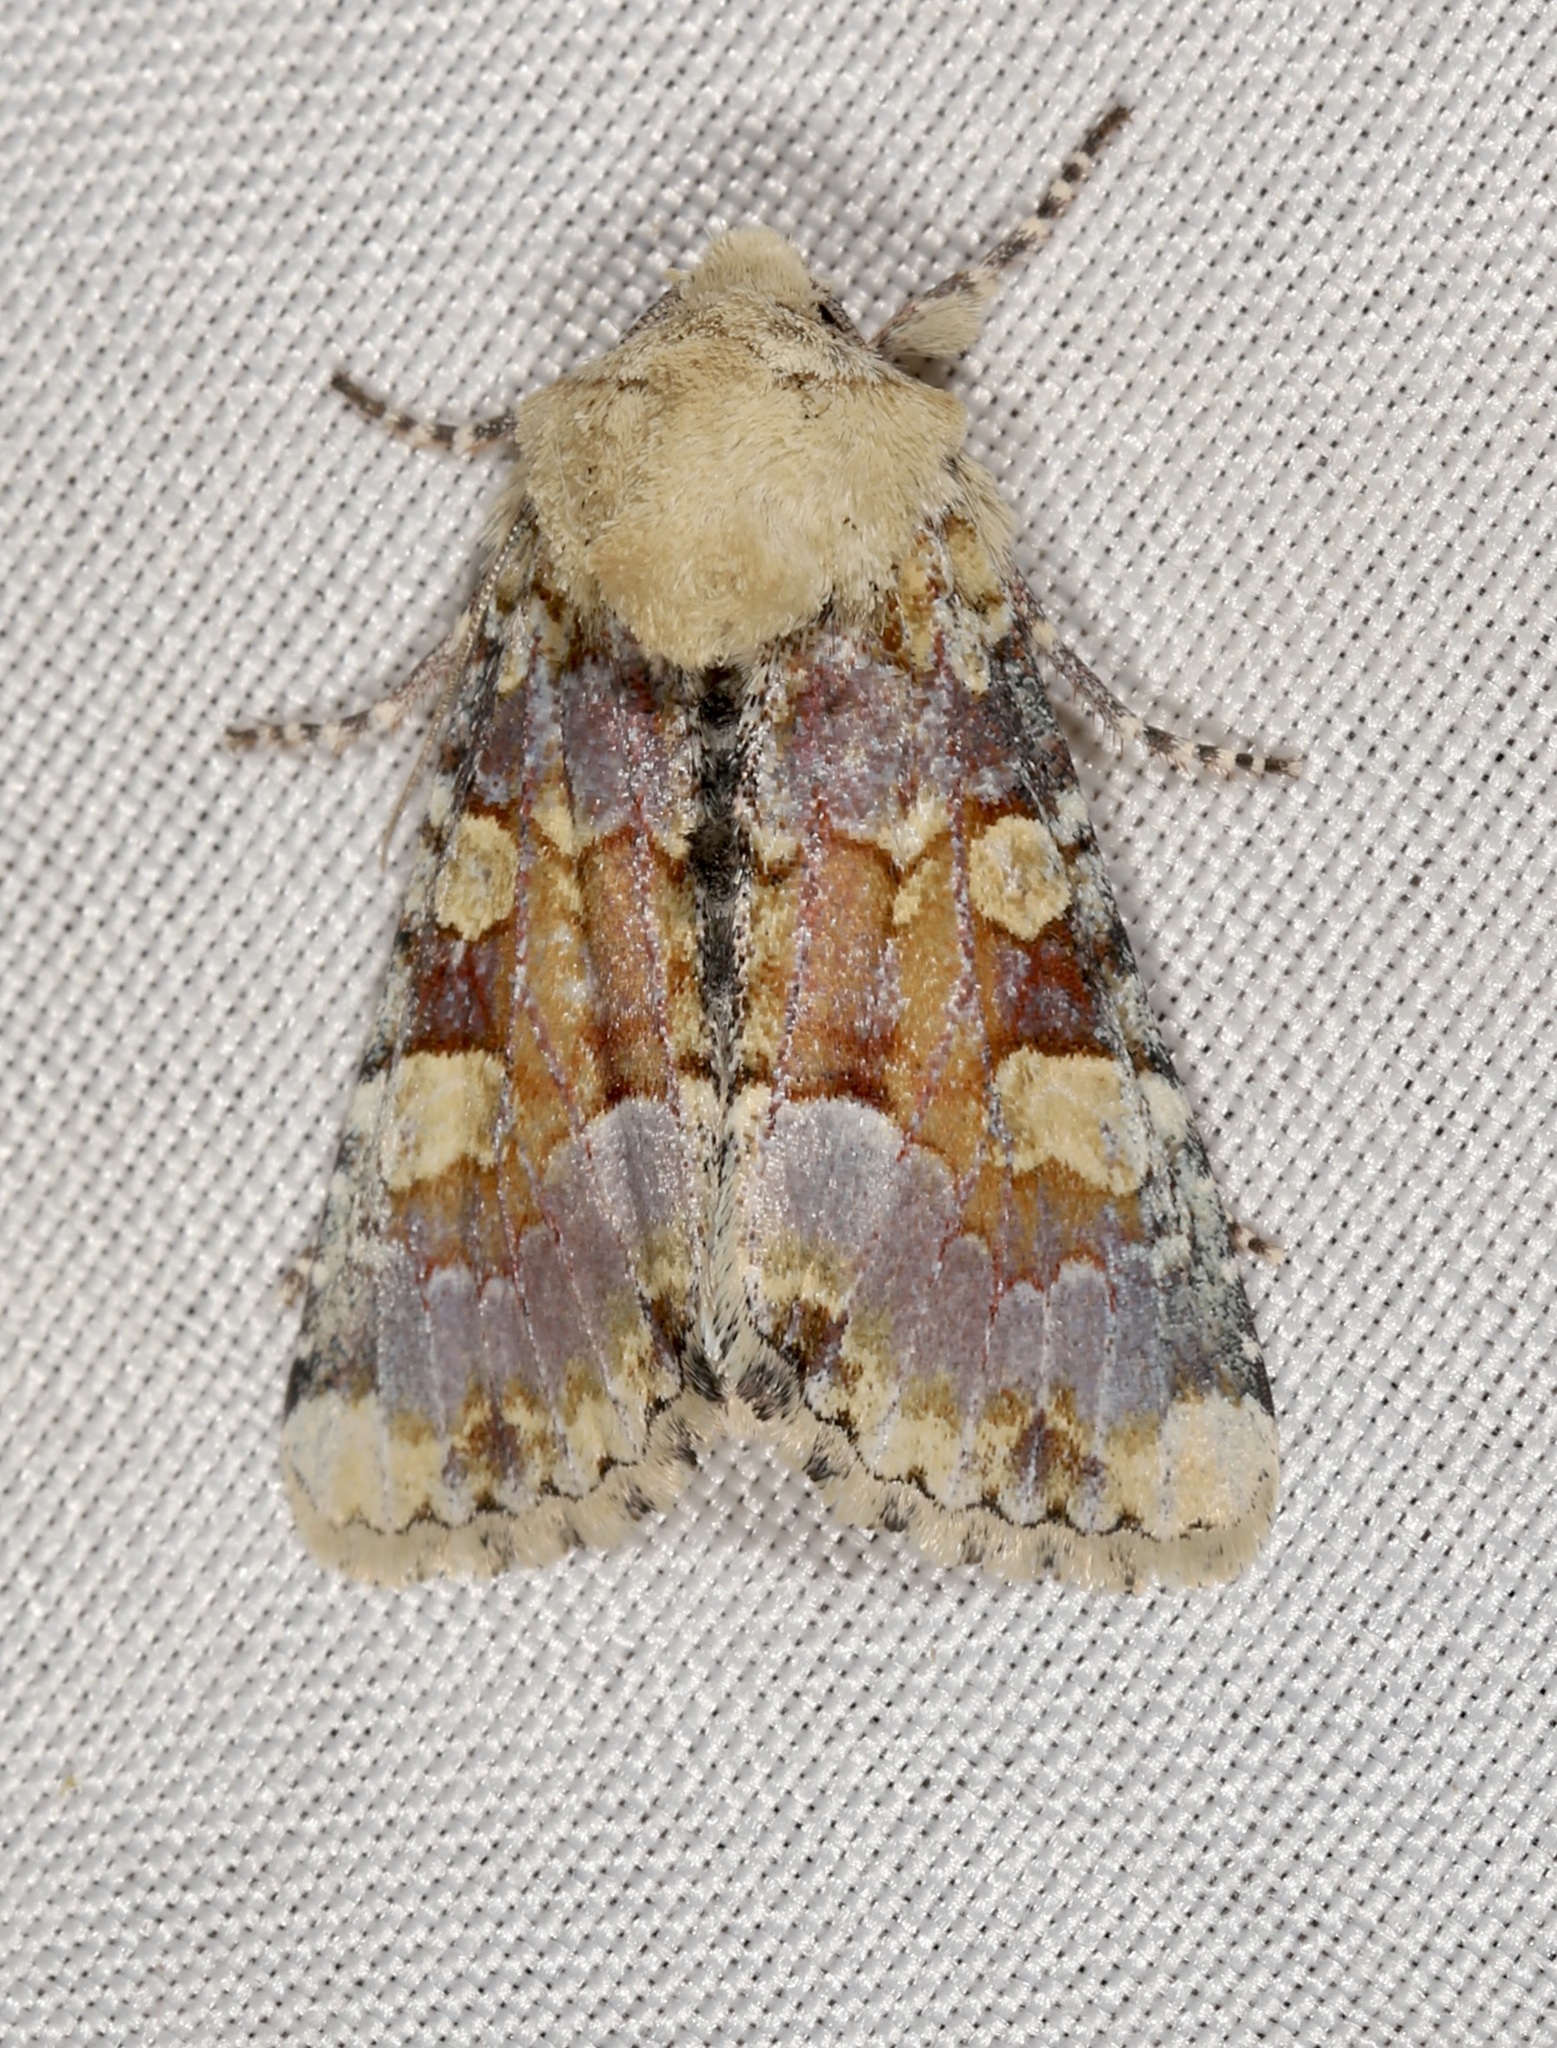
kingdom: Animalia
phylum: Arthropoda
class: Insecta
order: Lepidoptera
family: Noctuidae
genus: Oligia
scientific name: Oligia rampartensis
